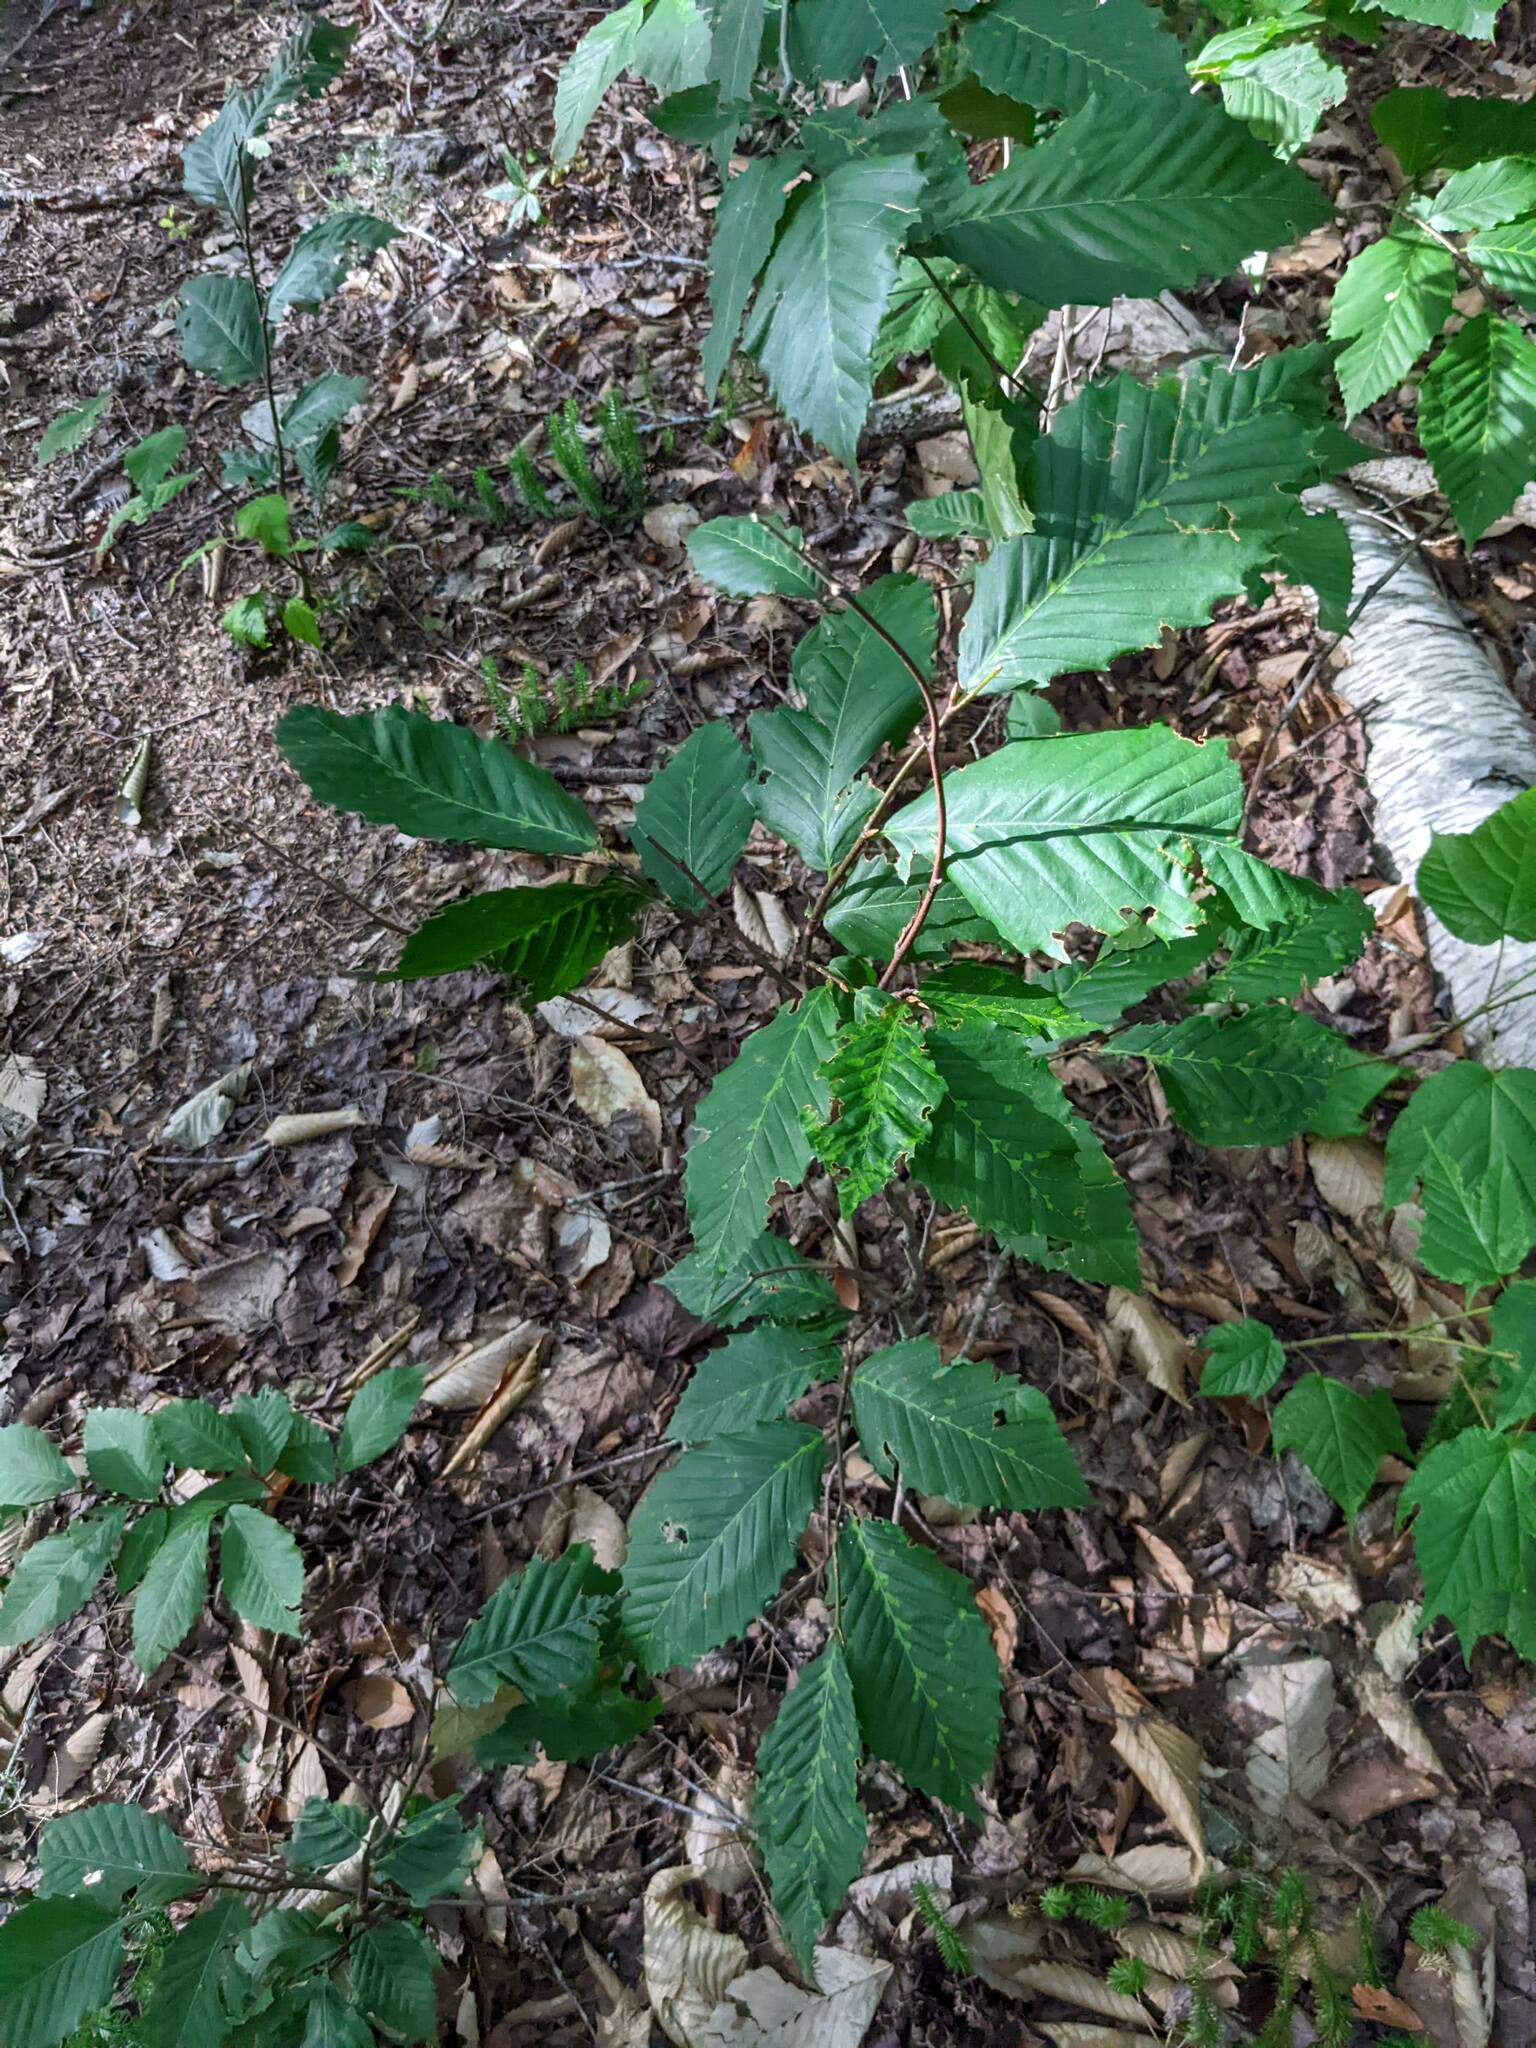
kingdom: Plantae
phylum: Tracheophyta
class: Magnoliopsida
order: Fagales
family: Fagaceae
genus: Fagus
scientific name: Fagus grandifolia
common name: American beech
